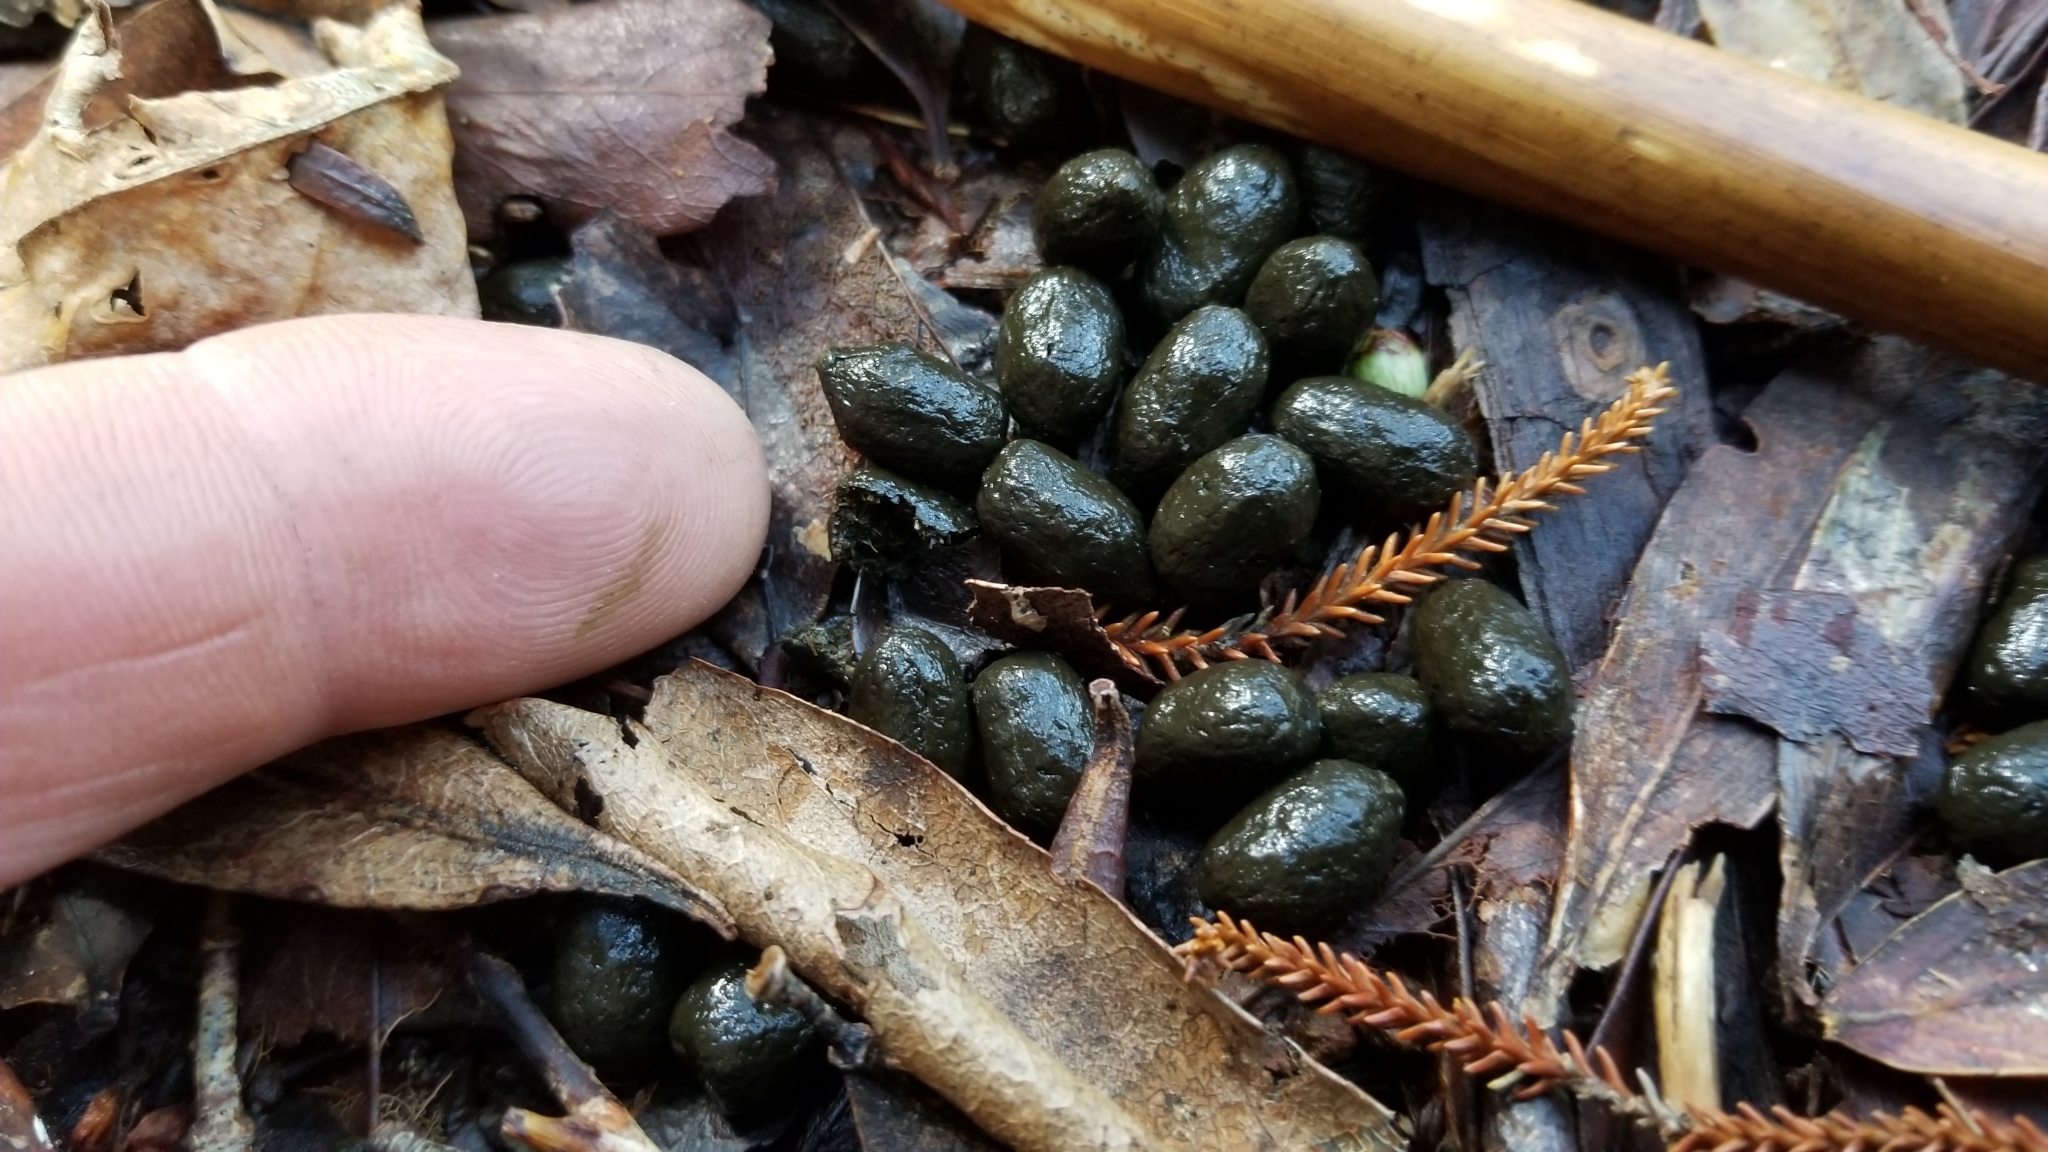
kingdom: Animalia
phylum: Chordata
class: Mammalia
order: Artiodactyla
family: Bovidae
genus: Capra
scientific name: Capra hircus
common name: Domestic goat
